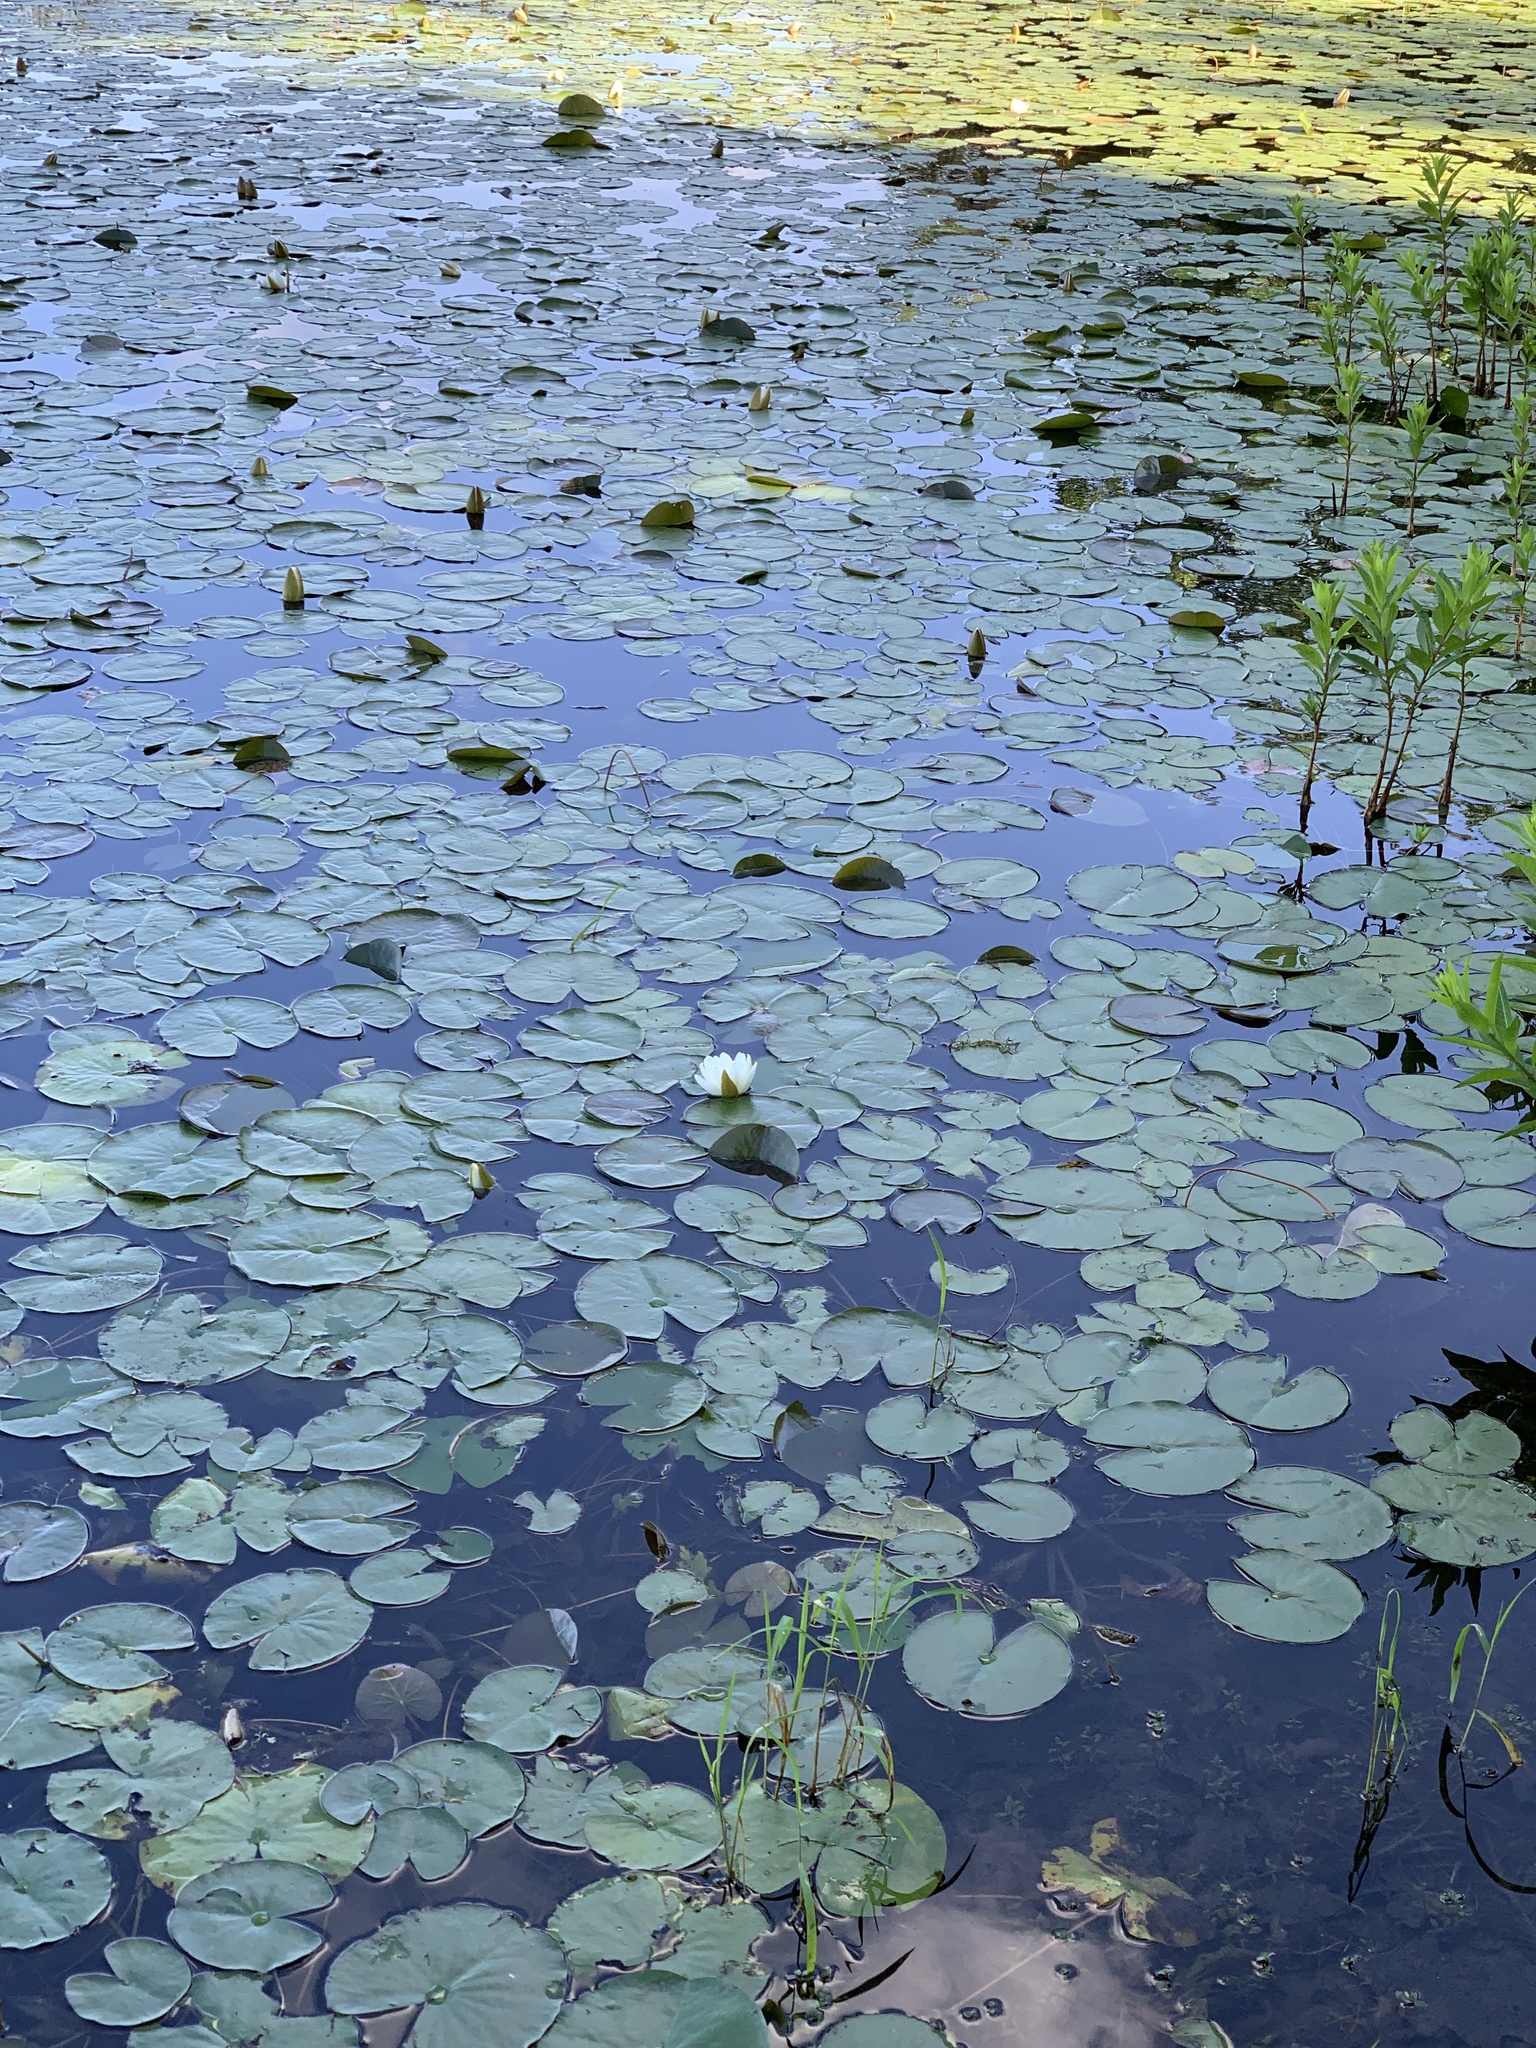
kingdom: Plantae
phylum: Tracheophyta
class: Magnoliopsida
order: Nymphaeales
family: Nymphaeaceae
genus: Nymphaea
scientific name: Nymphaea odorata
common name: Fragrant water-lily
